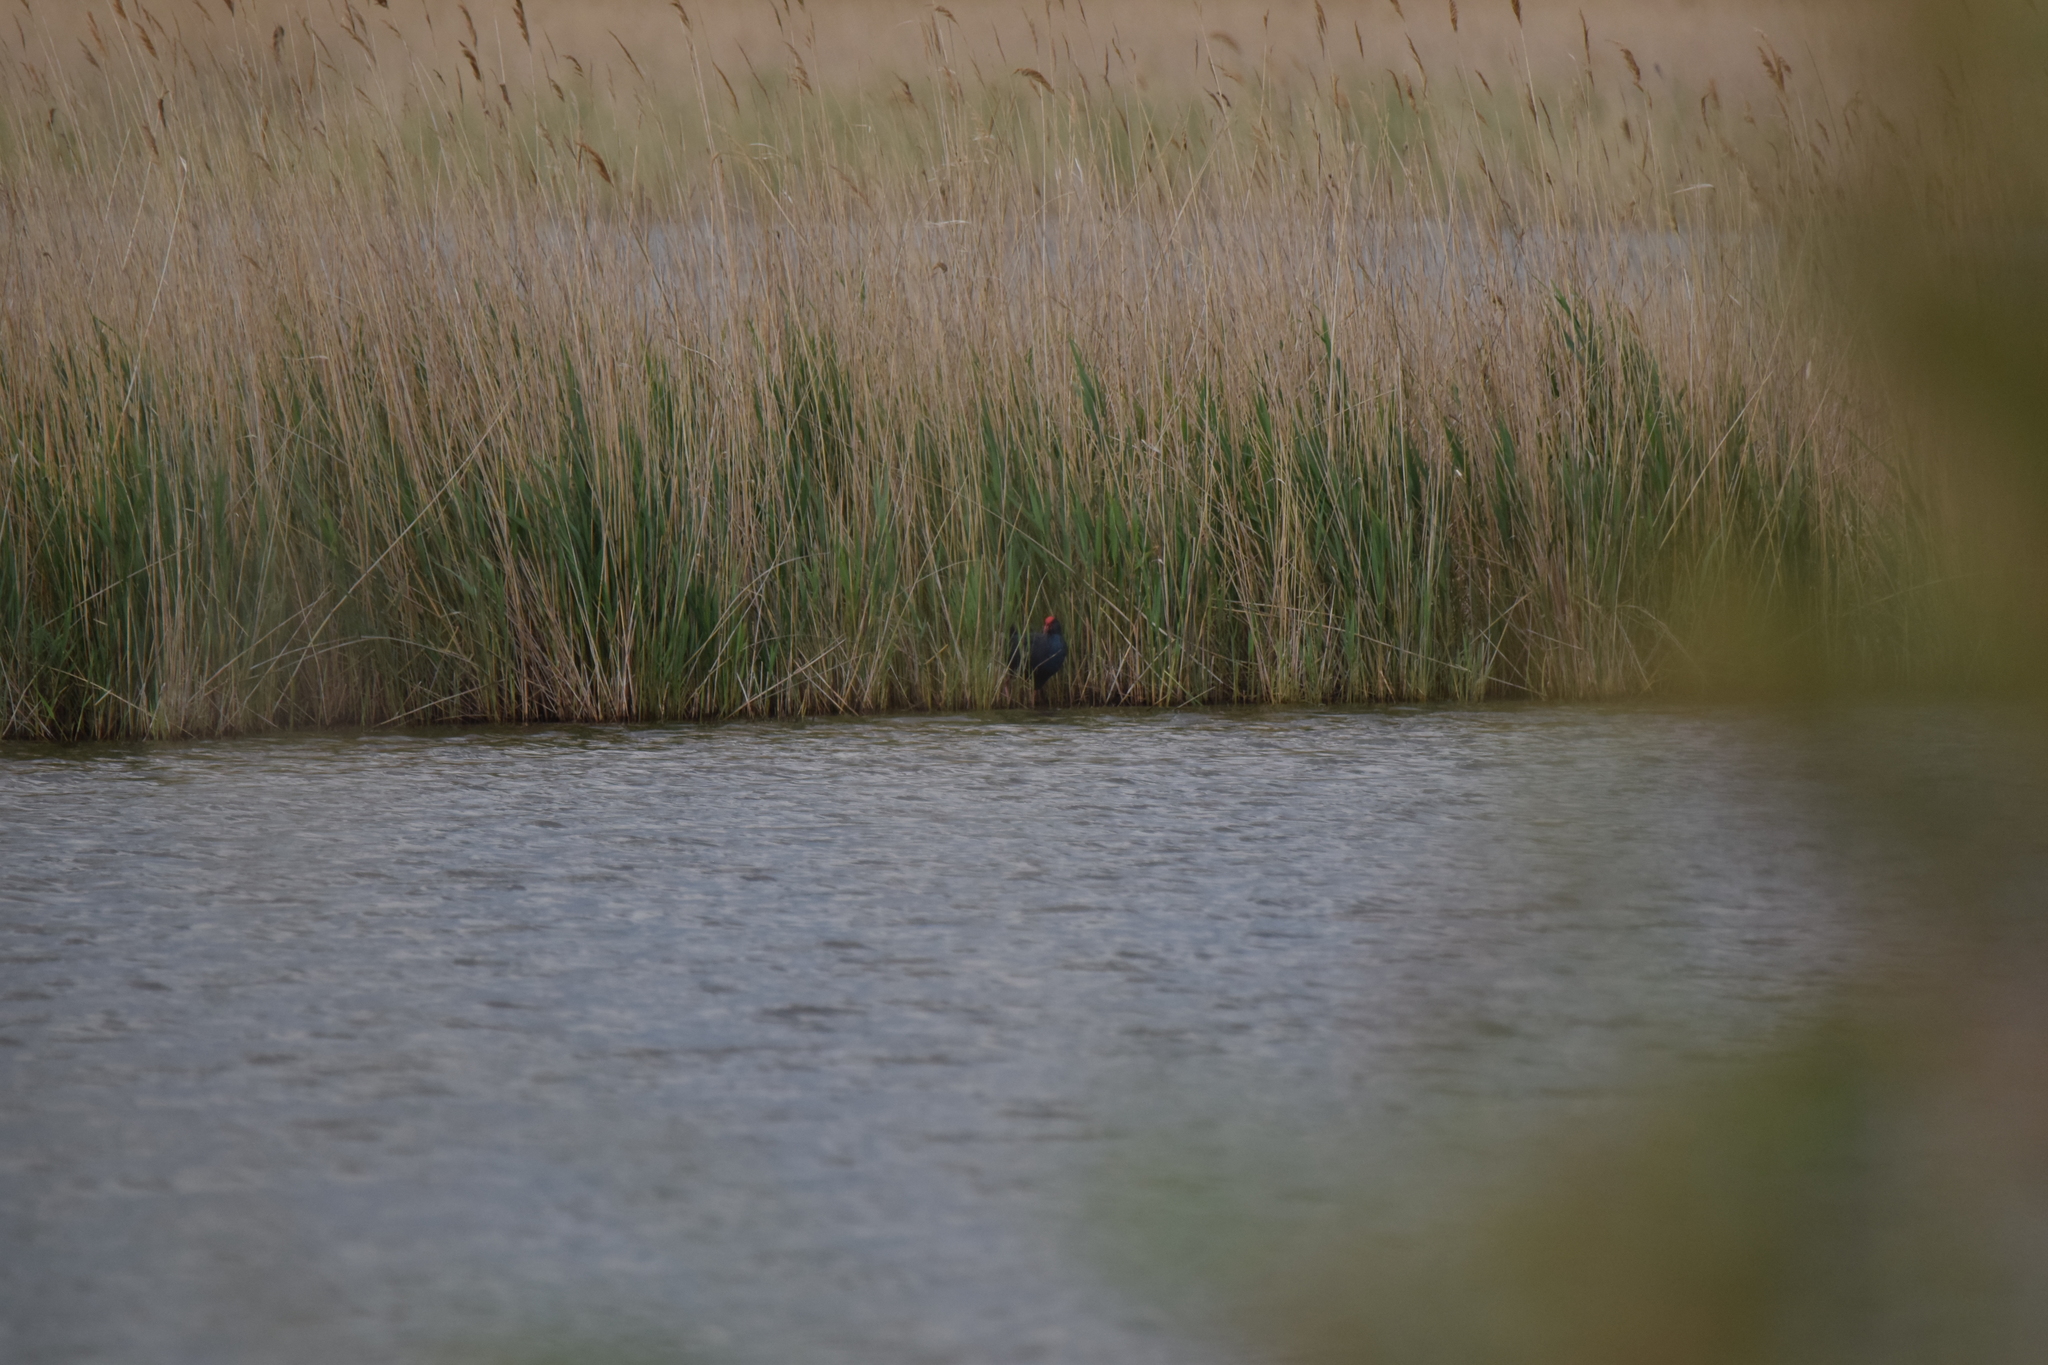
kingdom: Animalia
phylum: Chordata
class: Aves
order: Gruiformes
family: Rallidae
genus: Porphyrio
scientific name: Porphyrio porphyrio
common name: Purple swamphen
